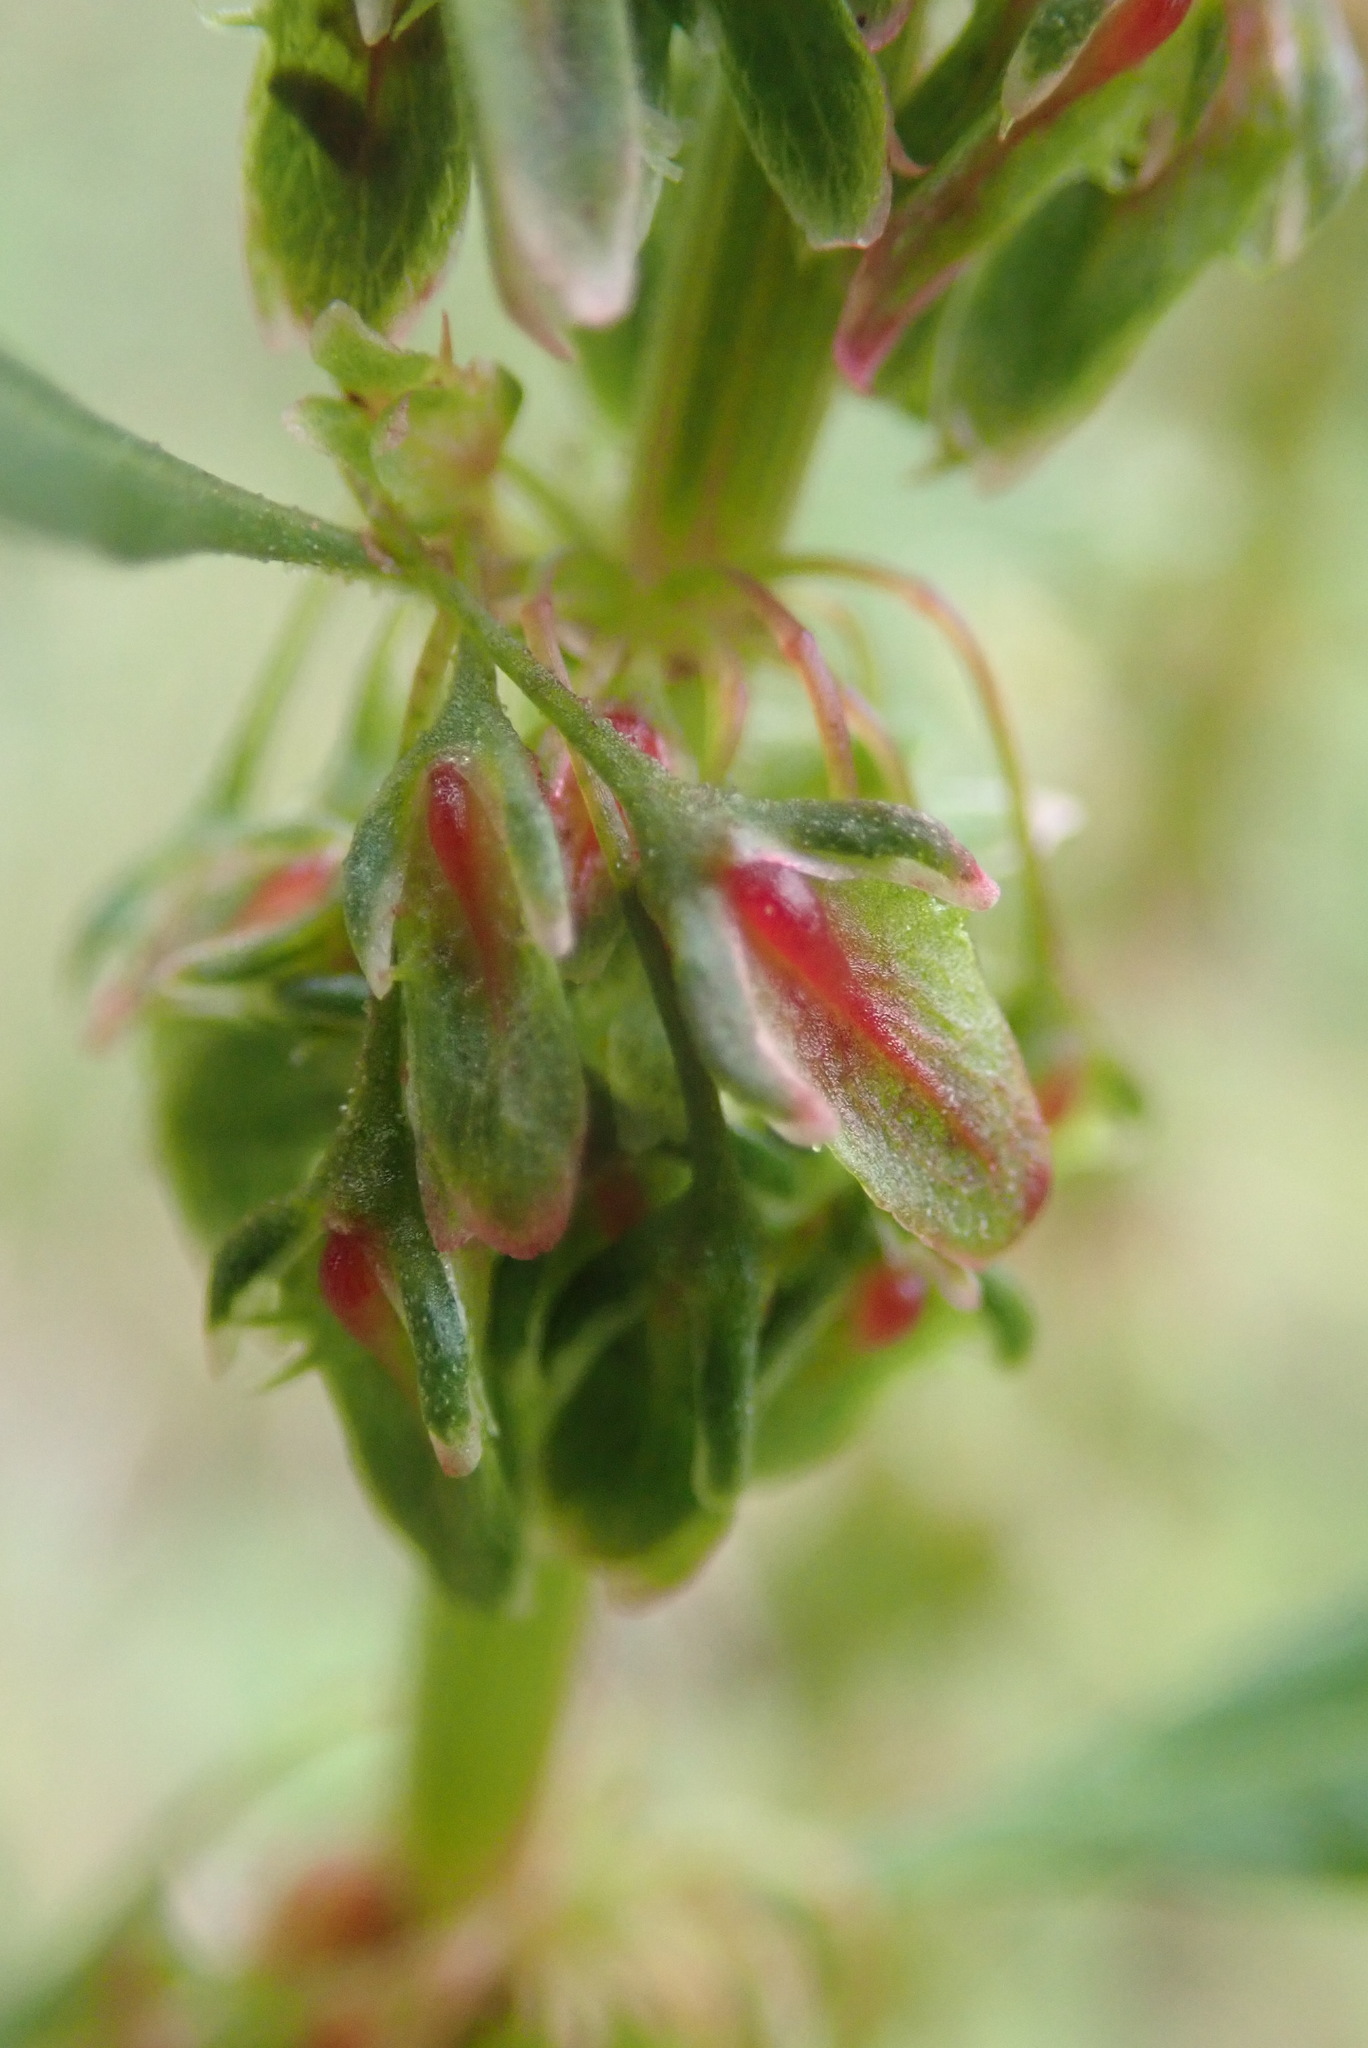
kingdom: Plantae
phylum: Tracheophyta
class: Magnoliopsida
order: Caryophyllales
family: Polygonaceae
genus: Rumex
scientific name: Rumex sanguineus
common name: Wood dock
